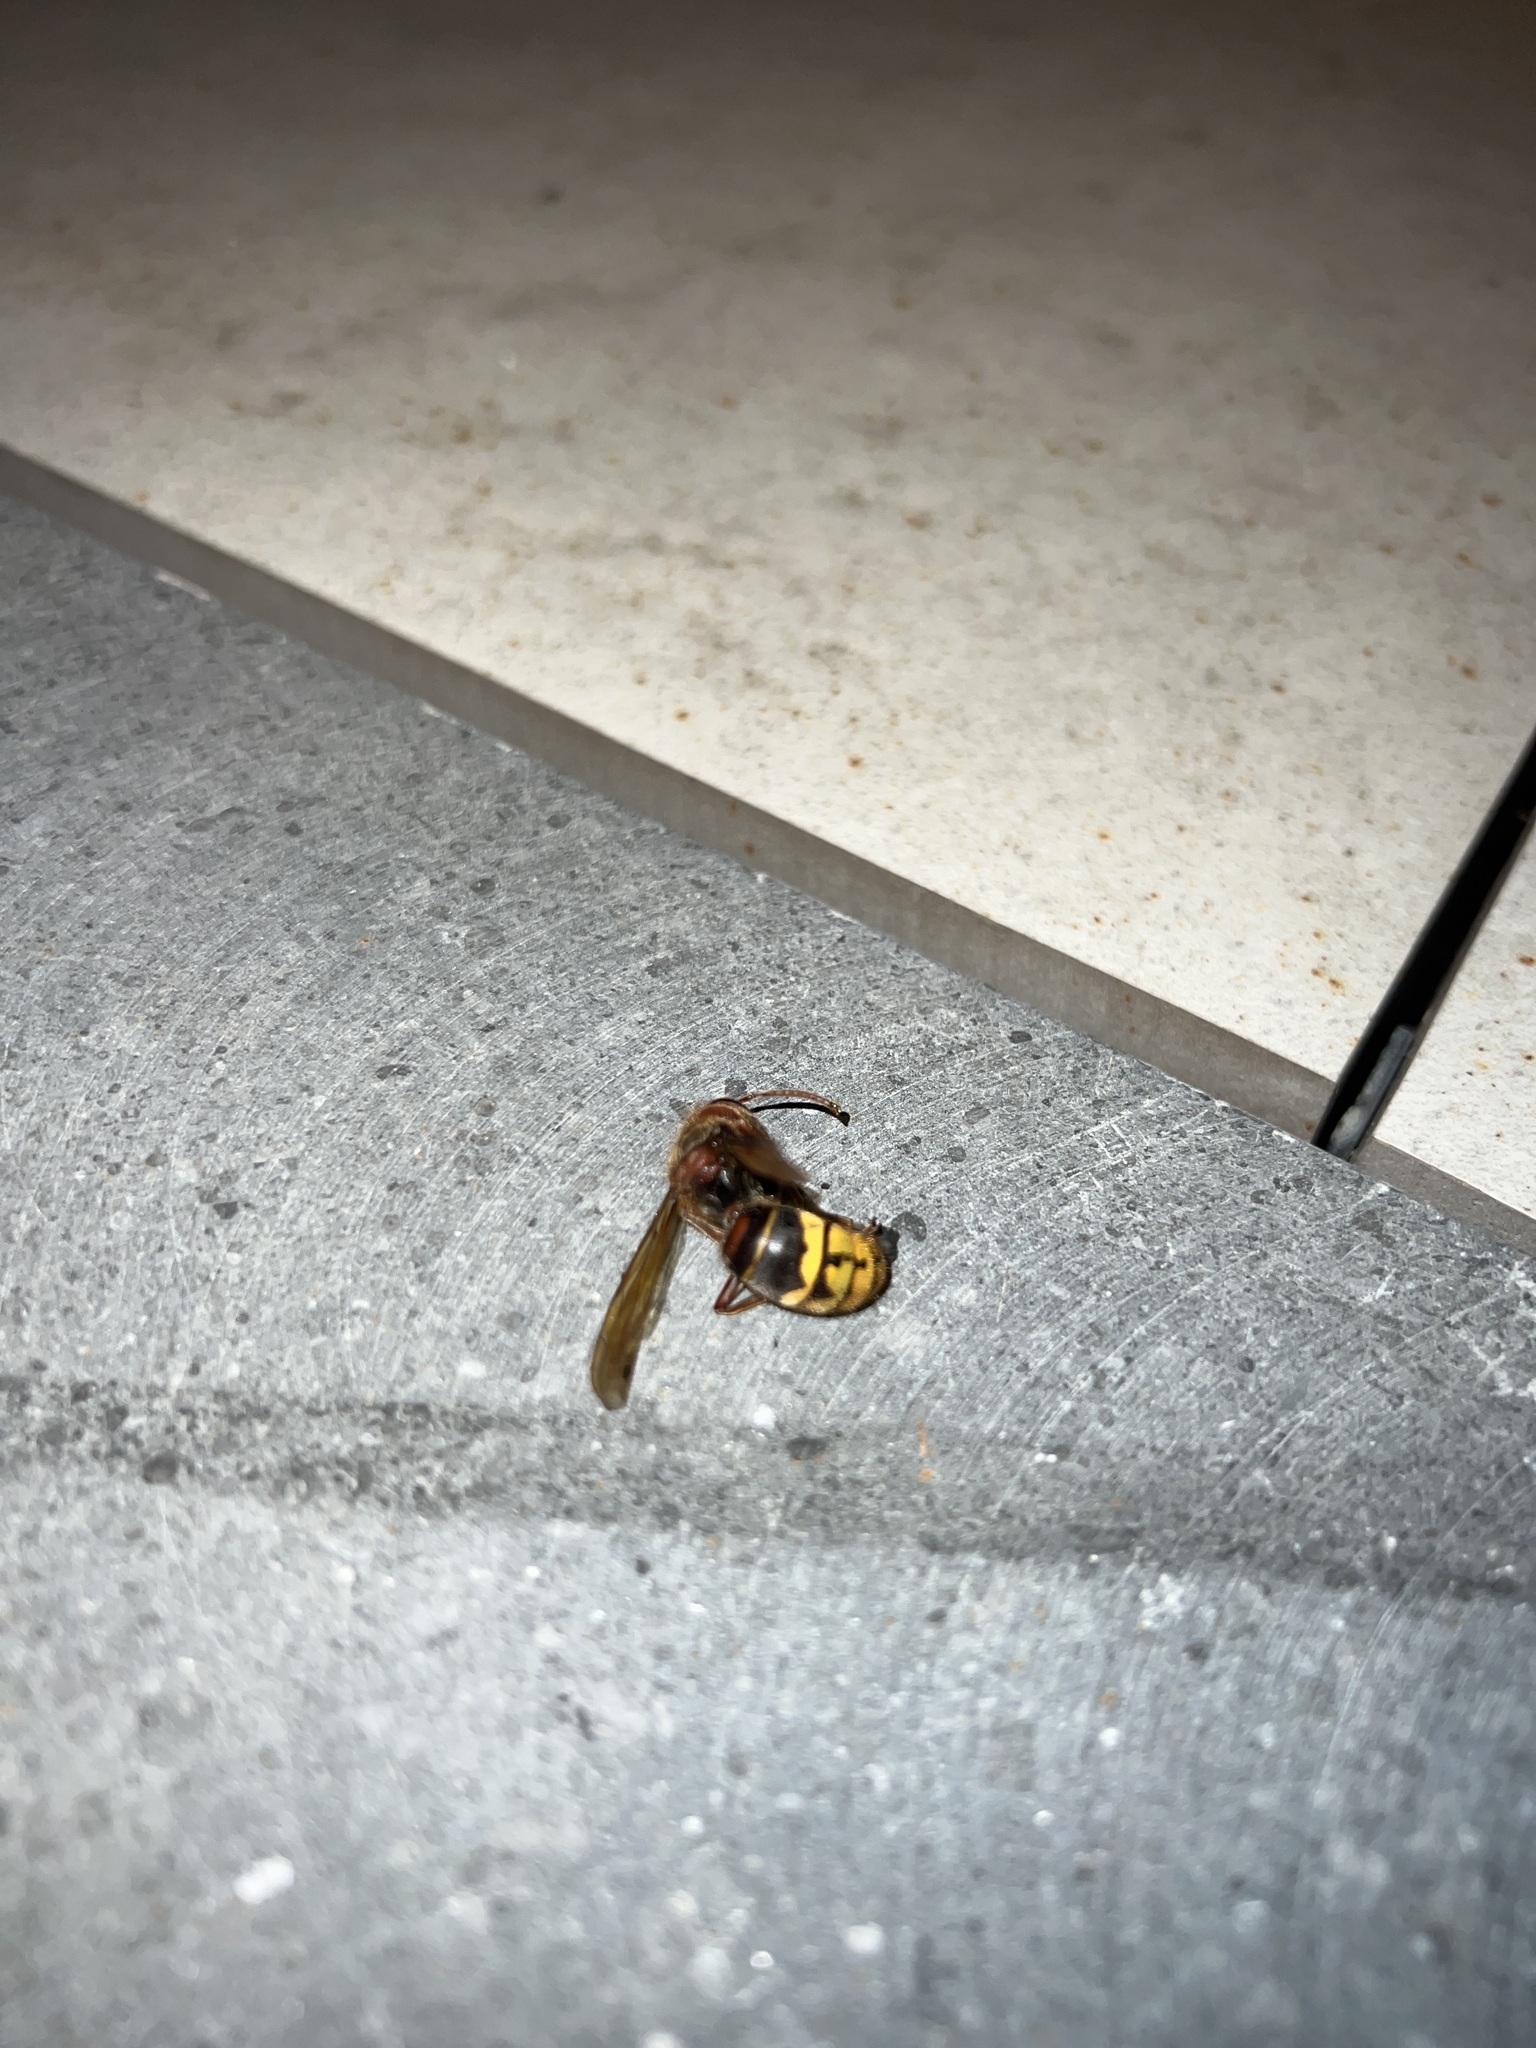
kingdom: Animalia
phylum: Arthropoda
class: Insecta
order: Hymenoptera
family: Vespidae
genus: Vespa
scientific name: Vespa crabro
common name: Hornet
